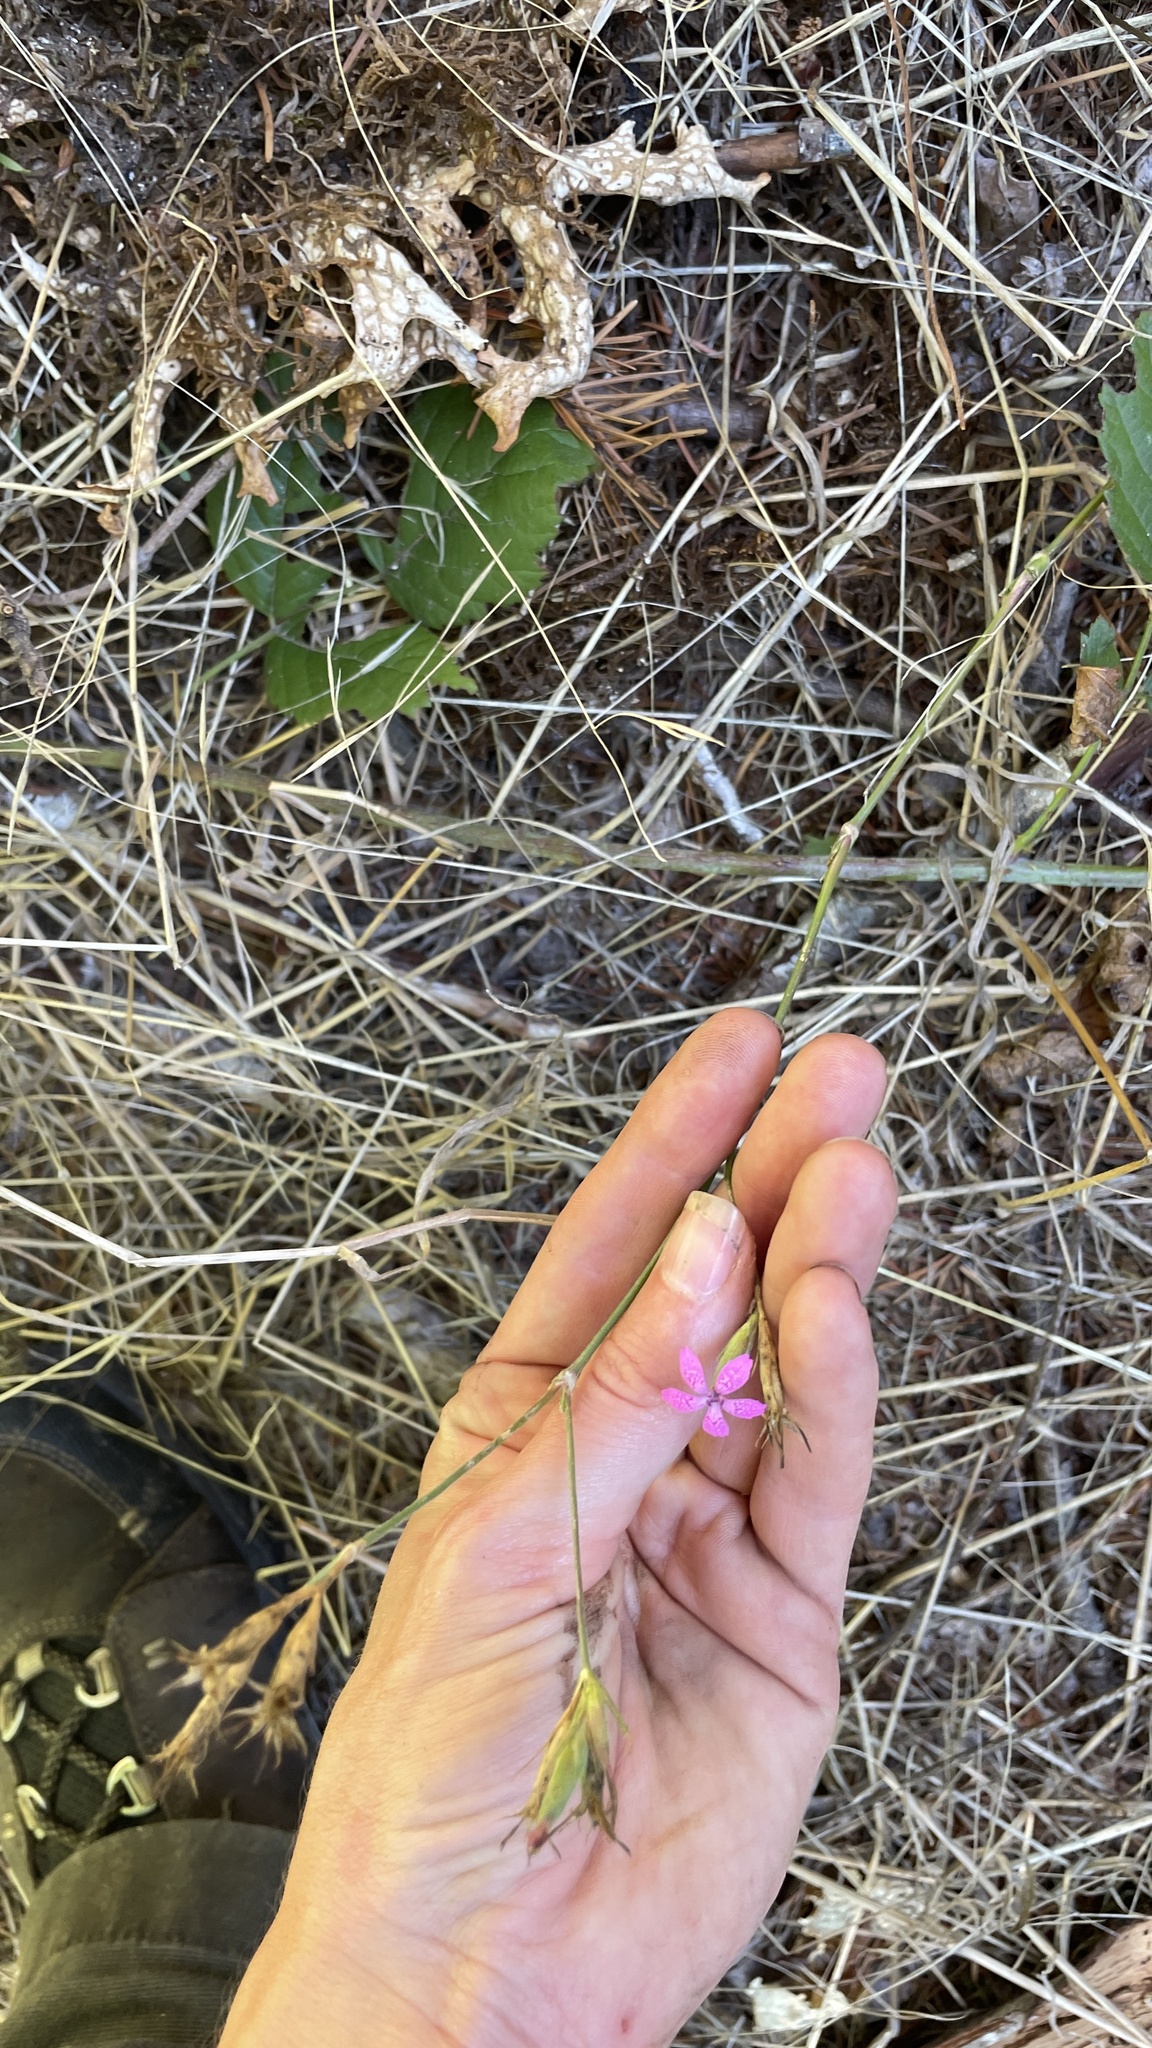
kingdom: Plantae
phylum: Tracheophyta
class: Magnoliopsida
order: Caryophyllales
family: Caryophyllaceae
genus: Dianthus
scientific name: Dianthus armeria
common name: Deptford pink
